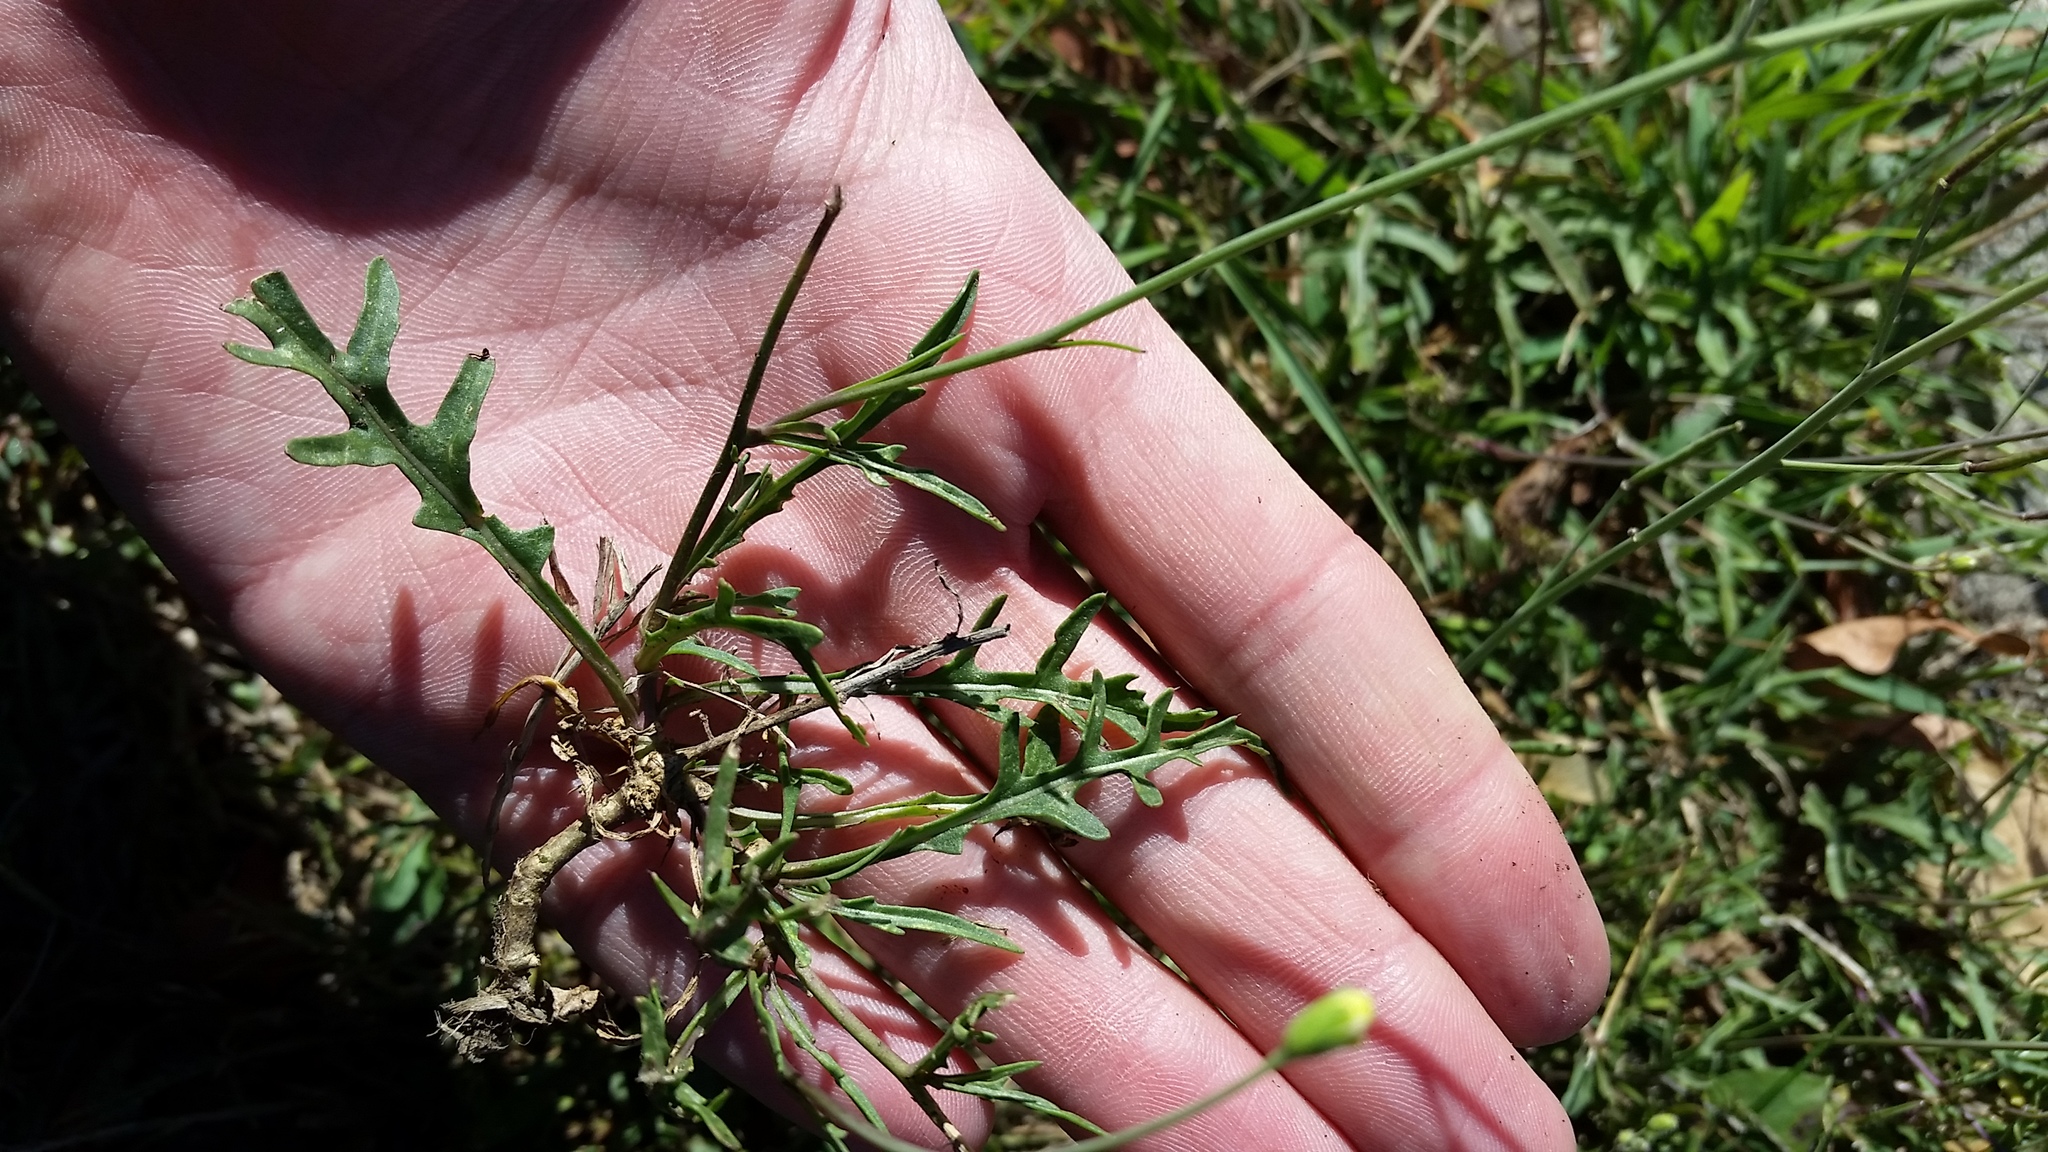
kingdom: Plantae
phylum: Tracheophyta
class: Magnoliopsida
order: Brassicales
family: Brassicaceae
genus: Diplotaxis
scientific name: Diplotaxis muralis
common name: Annual wall-rocket
